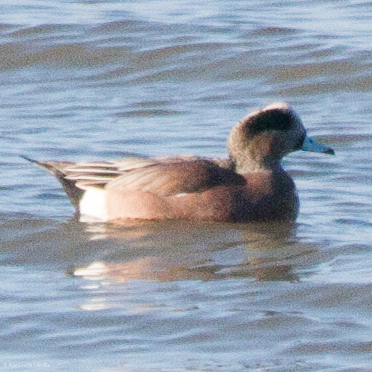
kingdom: Animalia
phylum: Chordata
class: Aves
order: Anseriformes
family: Anatidae
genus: Mareca
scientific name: Mareca americana
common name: American wigeon
